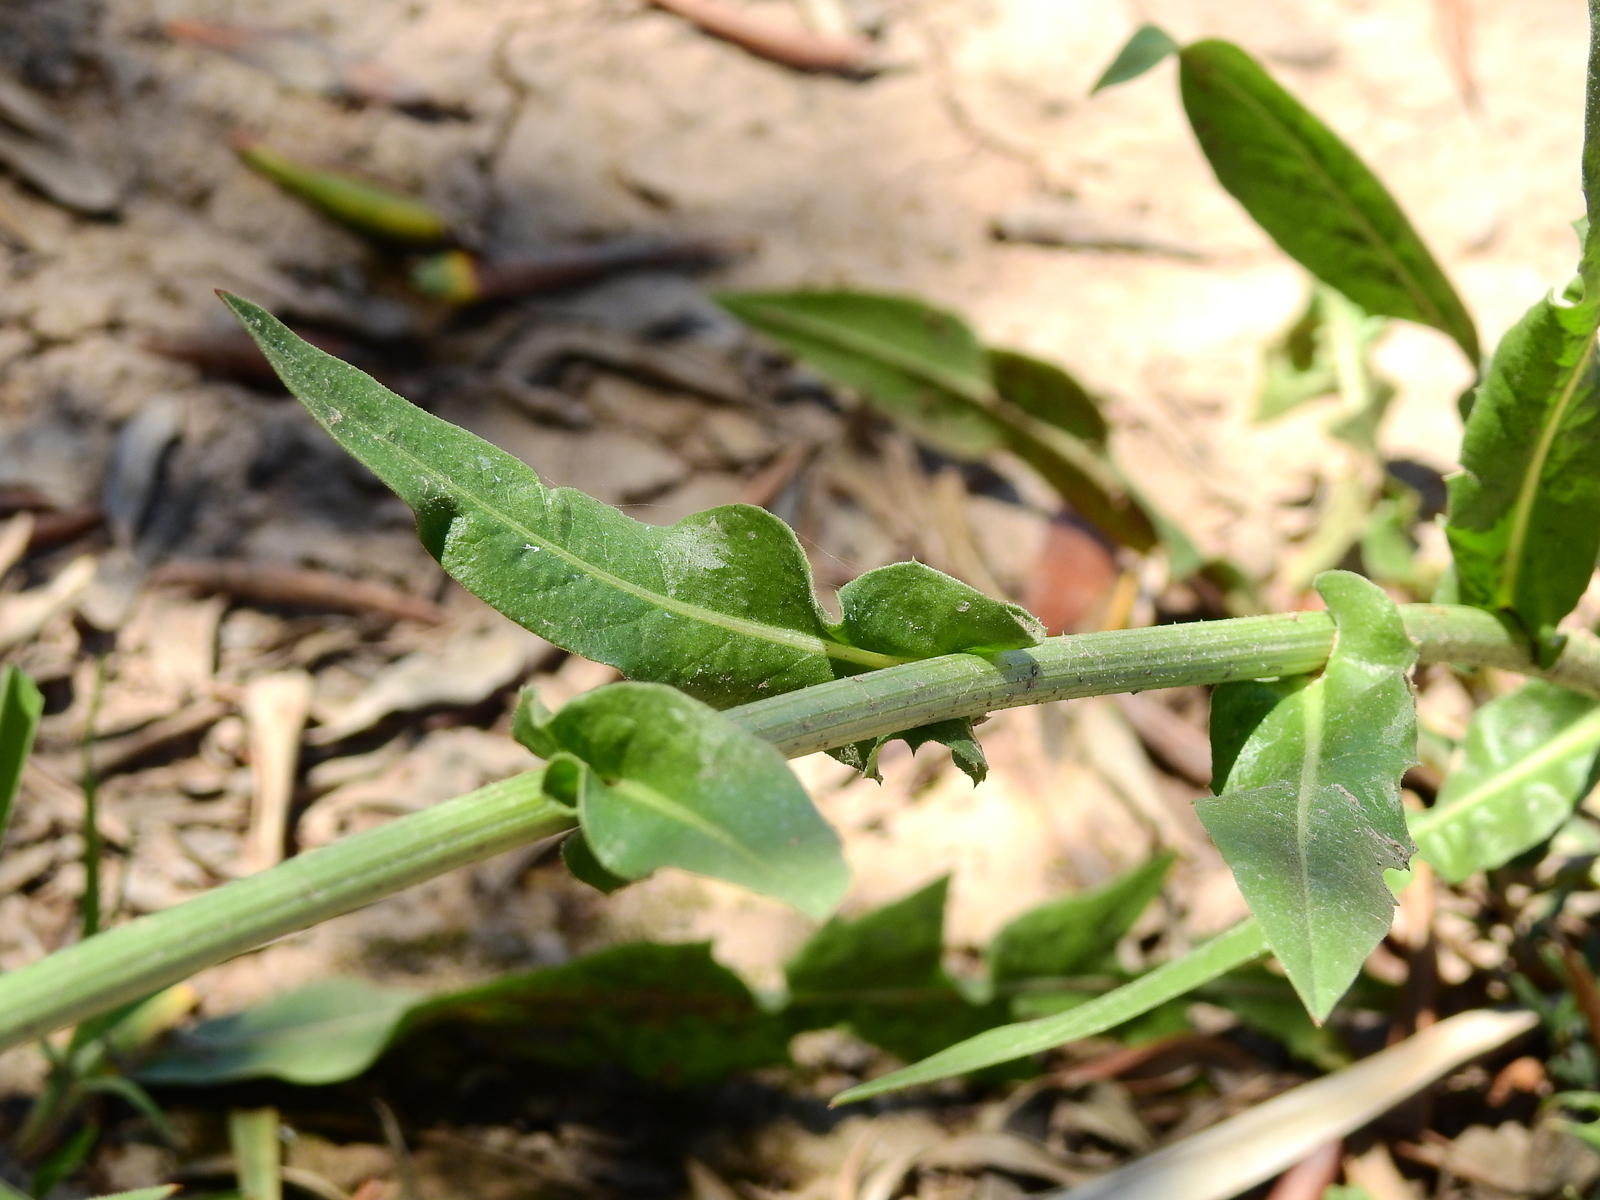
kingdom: Plantae
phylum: Tracheophyta
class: Magnoliopsida
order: Asterales
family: Asteraceae
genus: Cichorium
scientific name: Cichorium intybus
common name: Chicory
